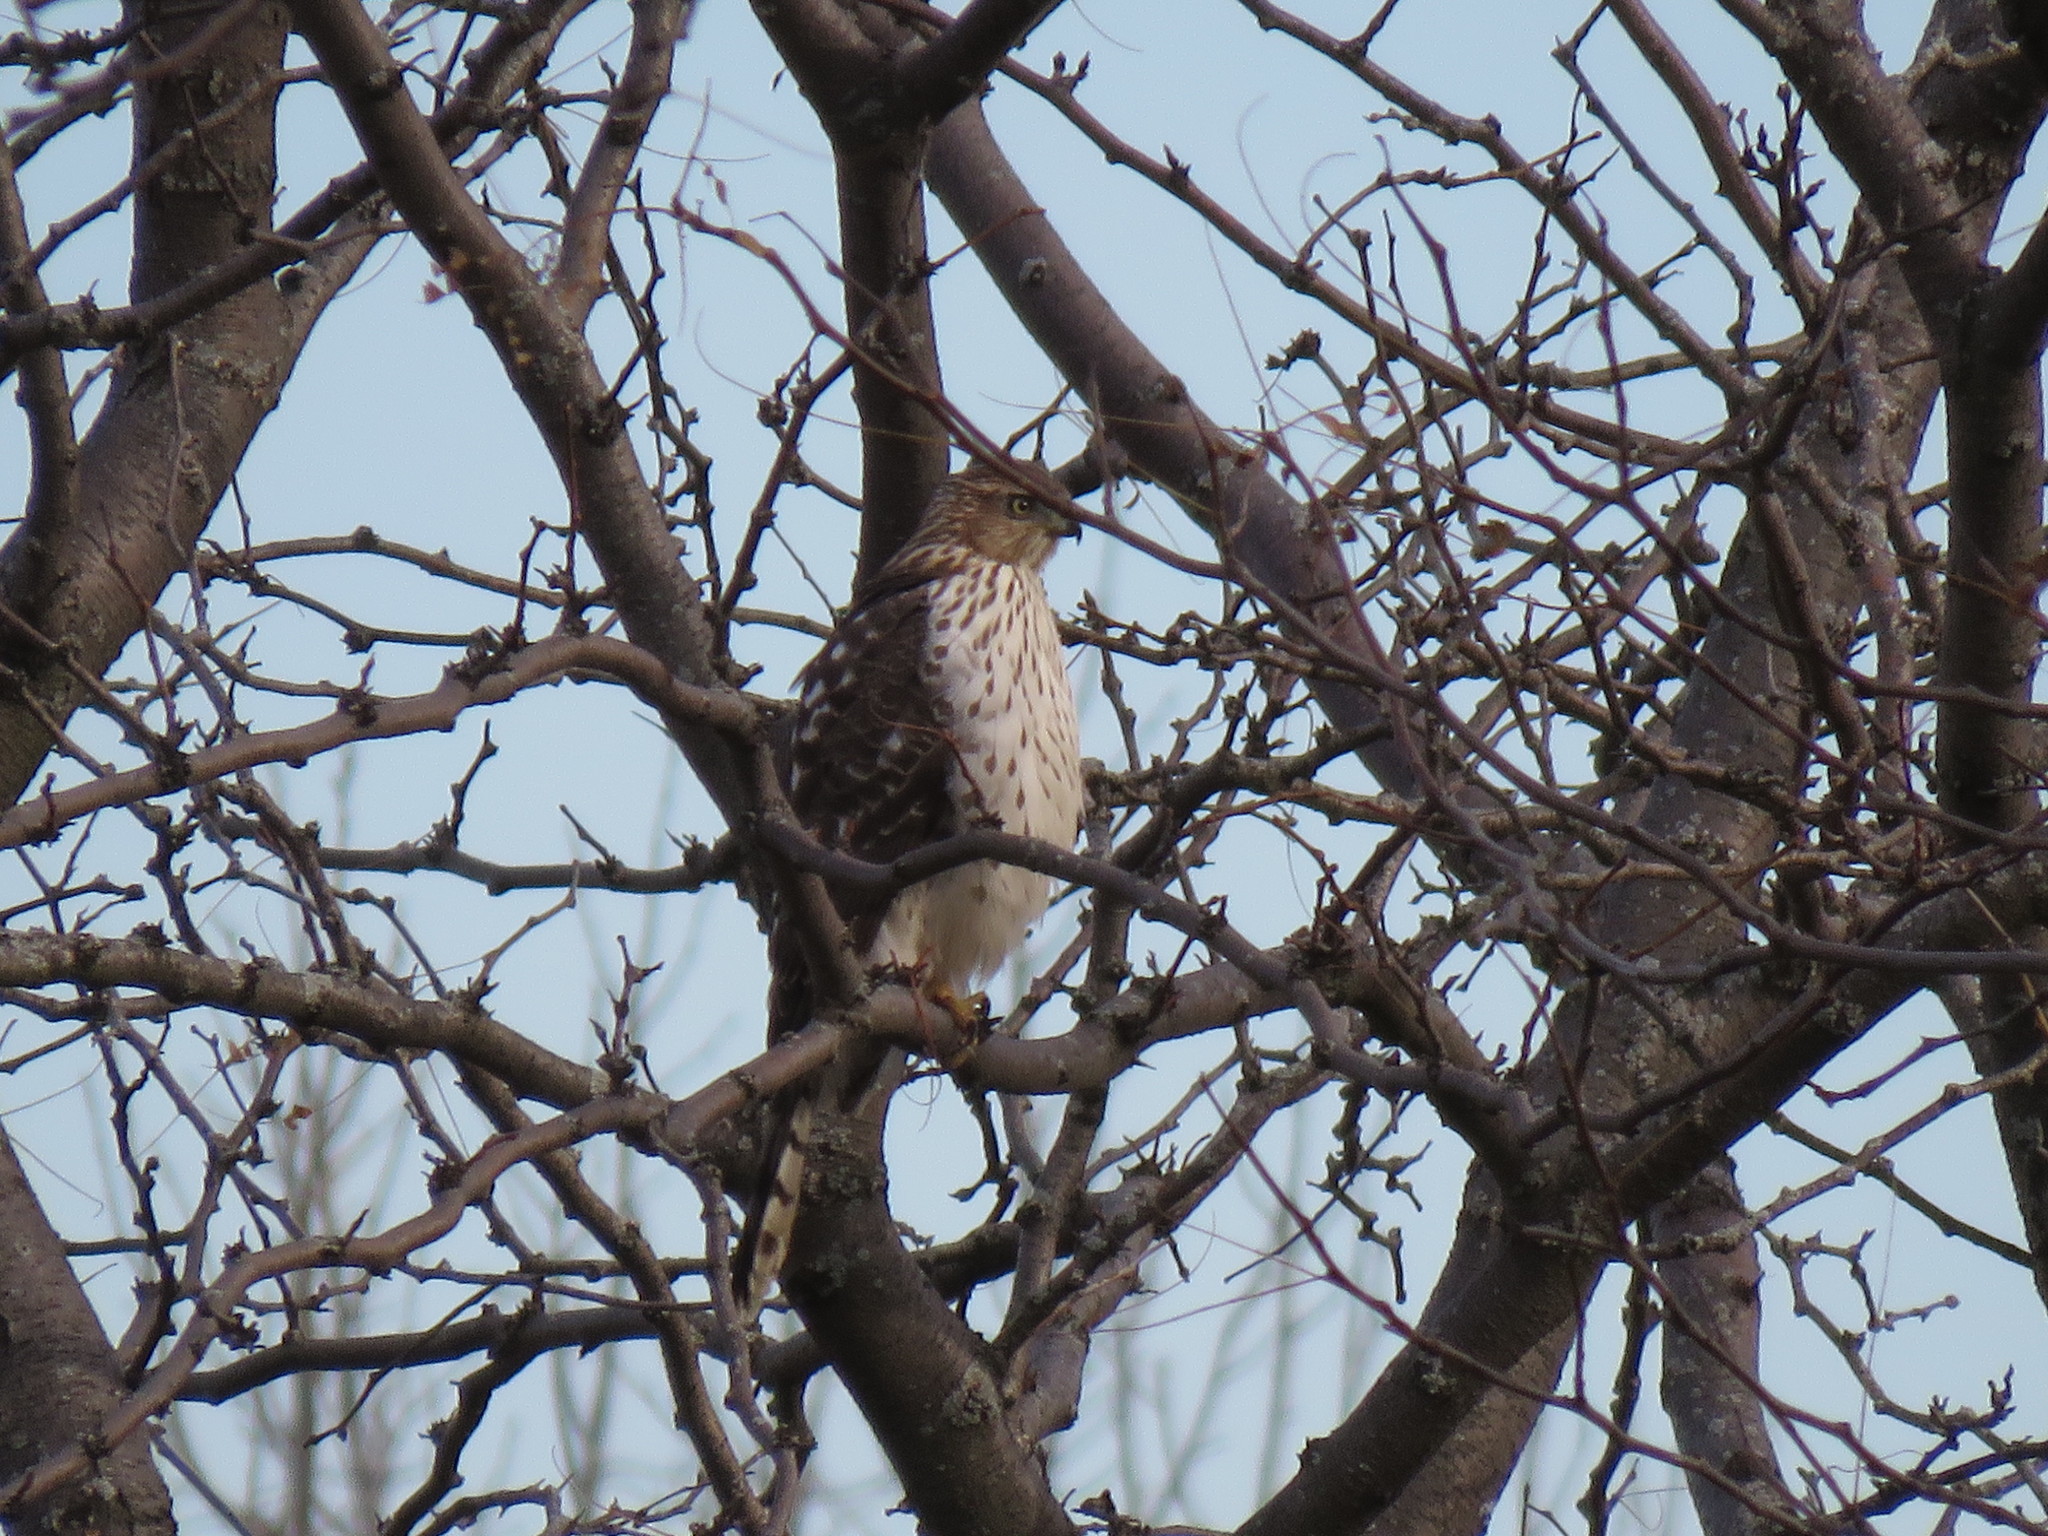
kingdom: Animalia
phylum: Chordata
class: Aves
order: Accipitriformes
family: Accipitridae
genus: Accipiter
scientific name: Accipiter cooperii
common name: Cooper's hawk
